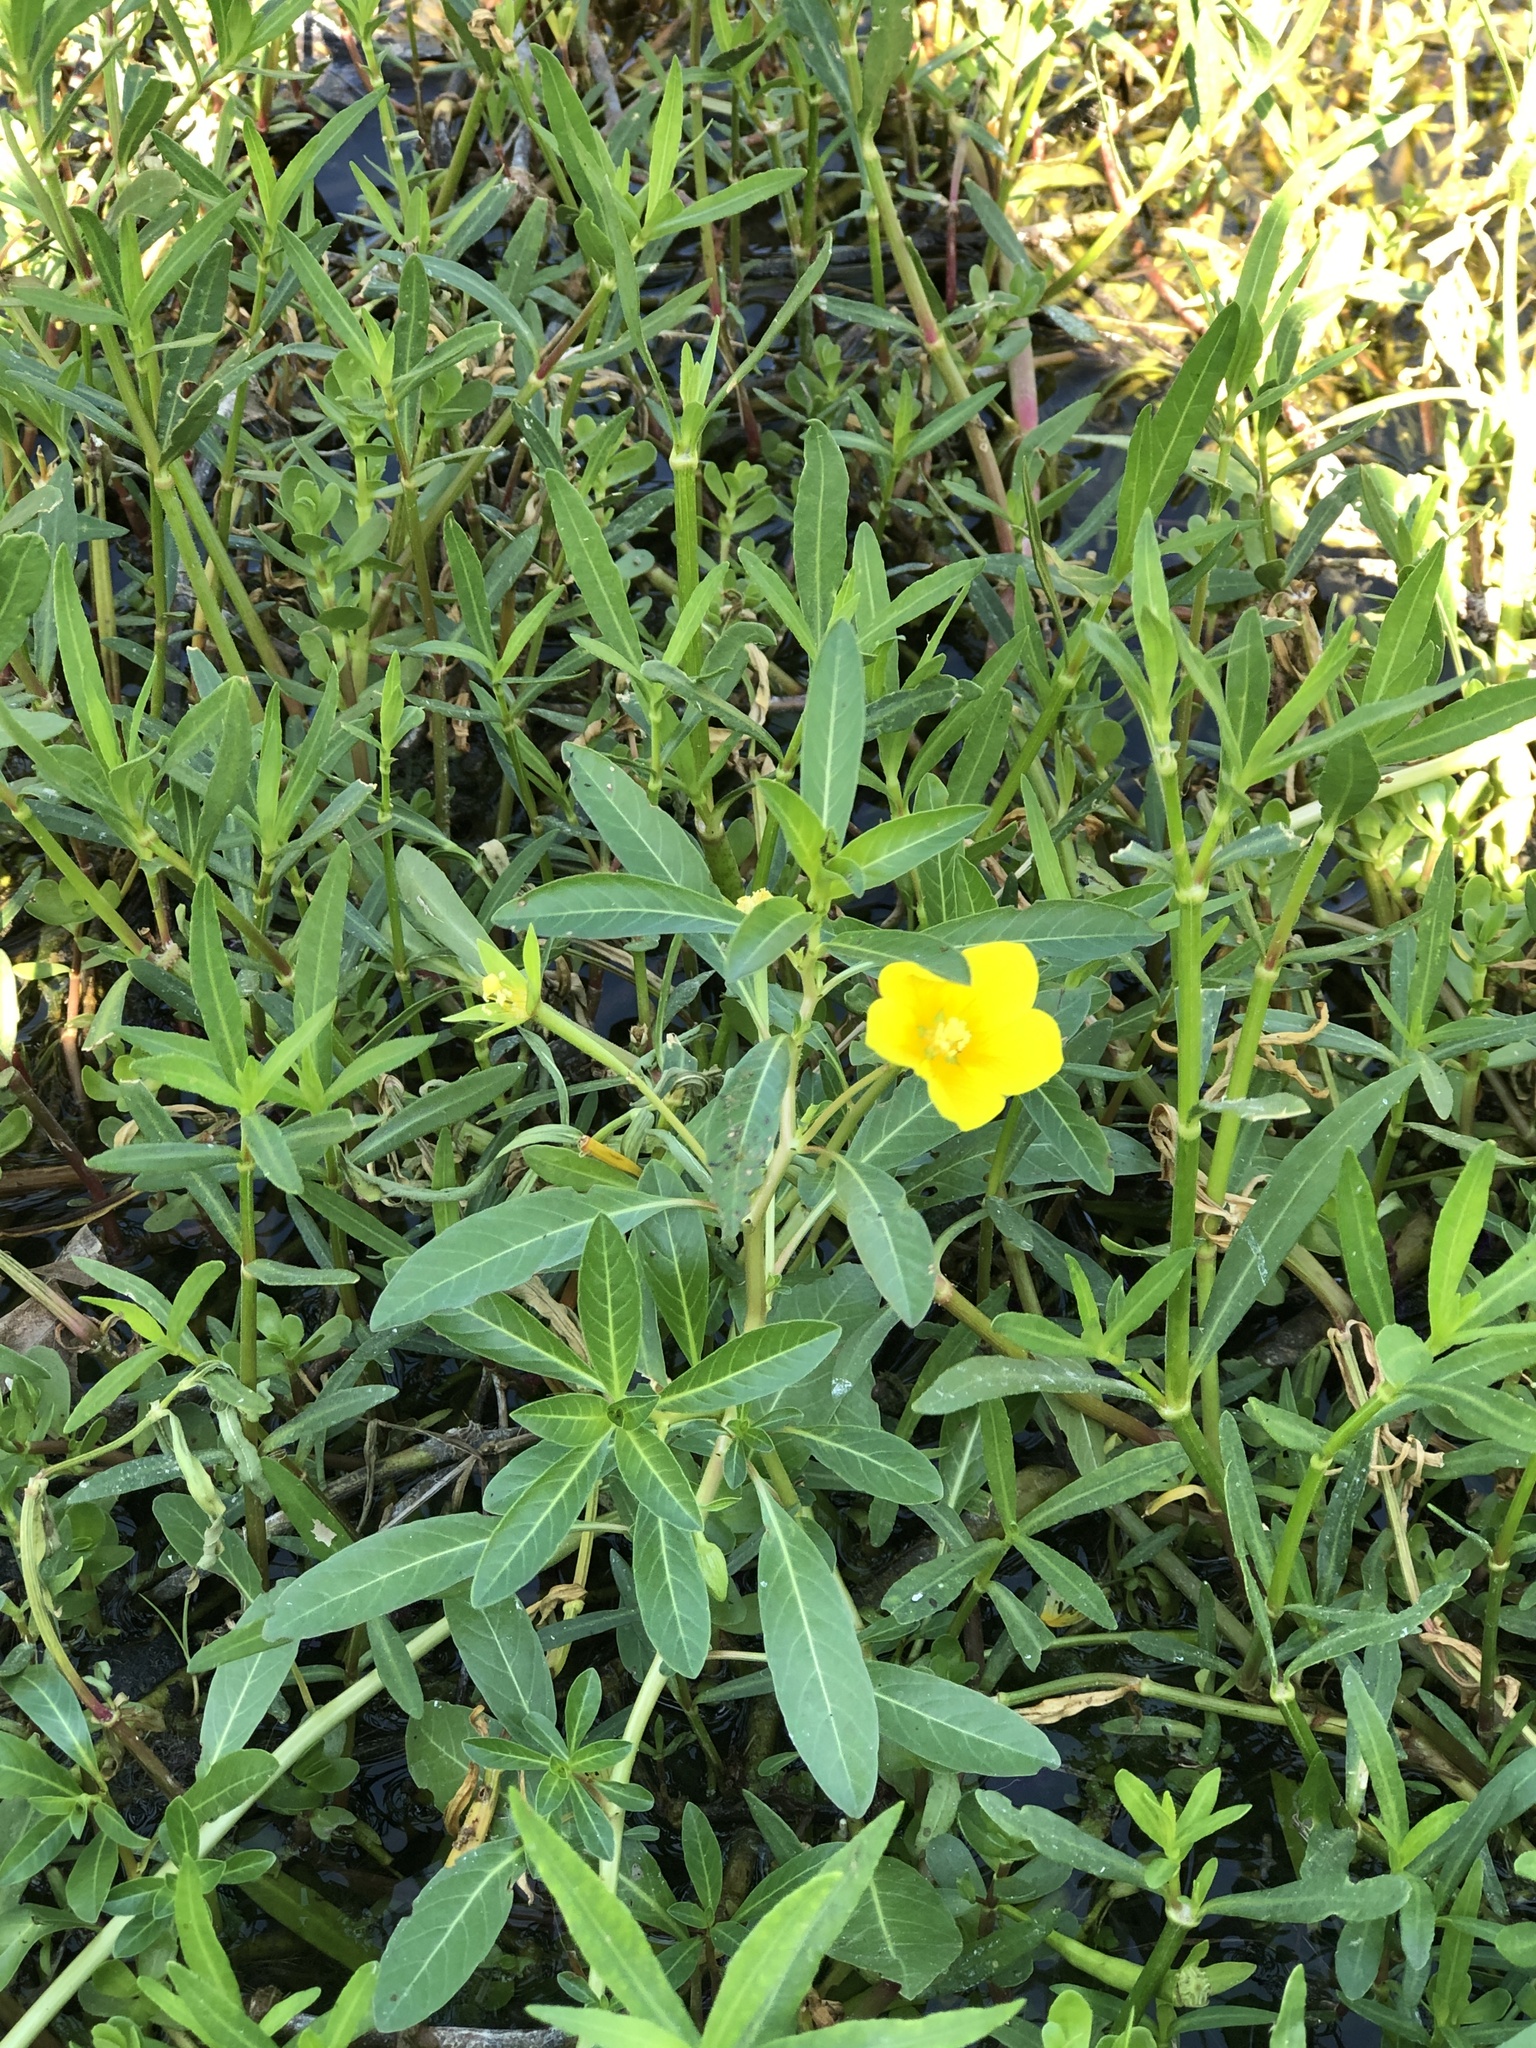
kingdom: Plantae
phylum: Tracheophyta
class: Magnoliopsida
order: Myrtales
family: Onagraceae
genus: Ludwigia
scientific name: Ludwigia peploides
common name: Floating primrose-willow
